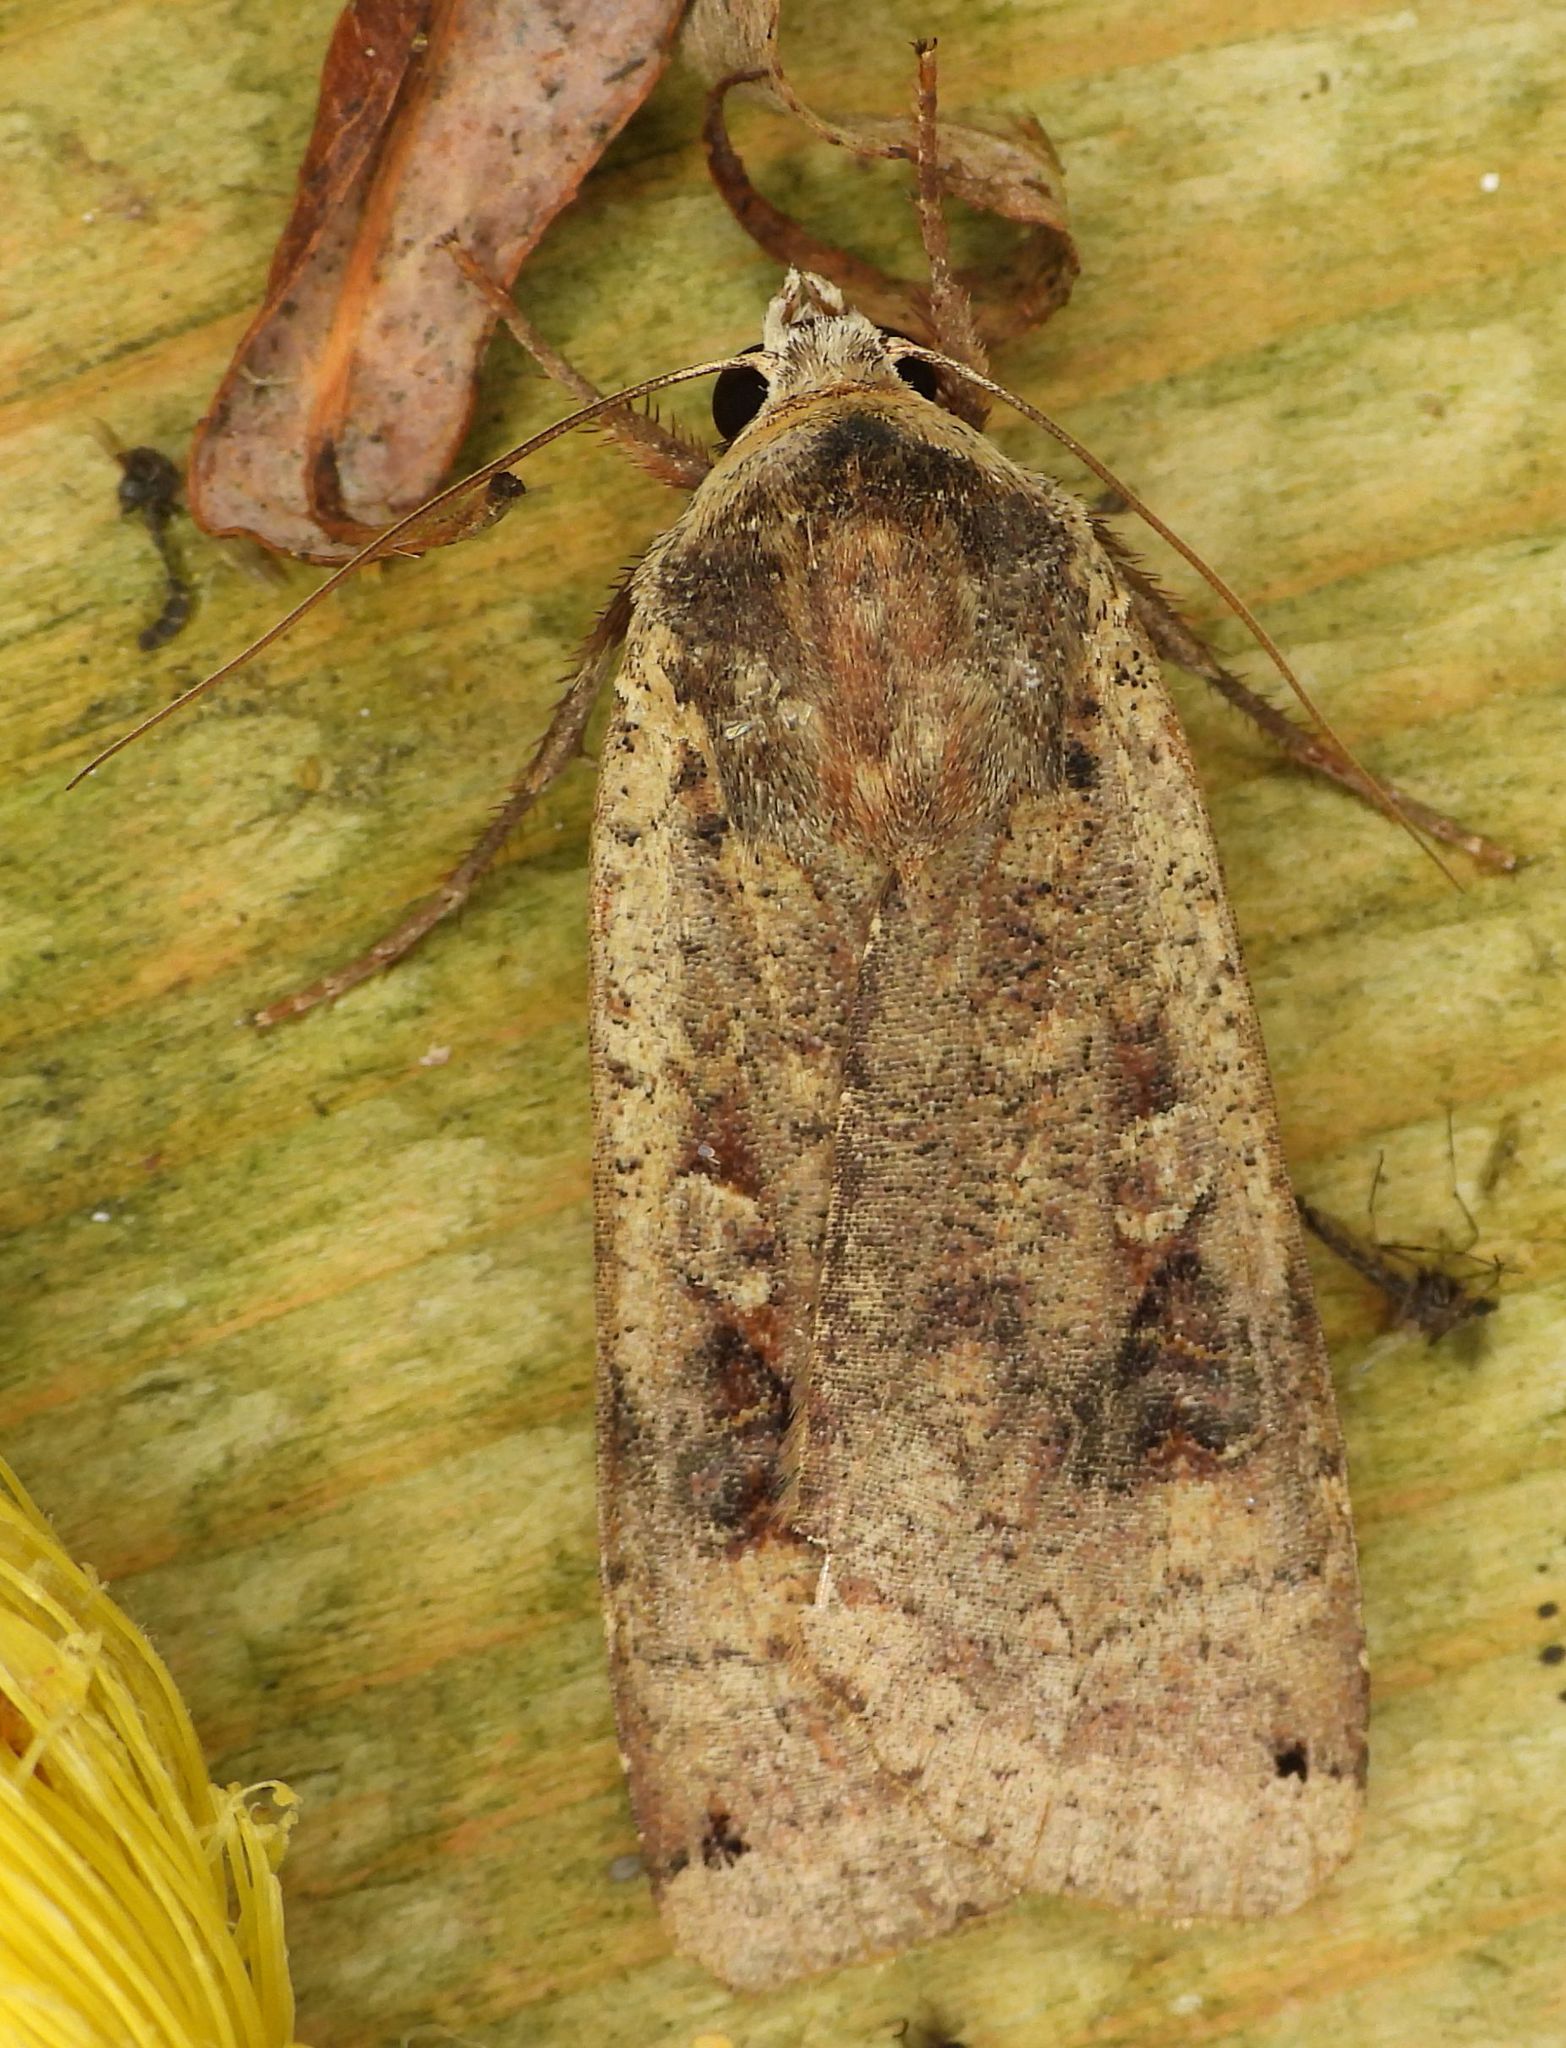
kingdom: Animalia
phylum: Arthropoda
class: Insecta
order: Lepidoptera
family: Noctuidae
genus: Noctua
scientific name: Noctua pronuba
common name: Large yellow underwing
